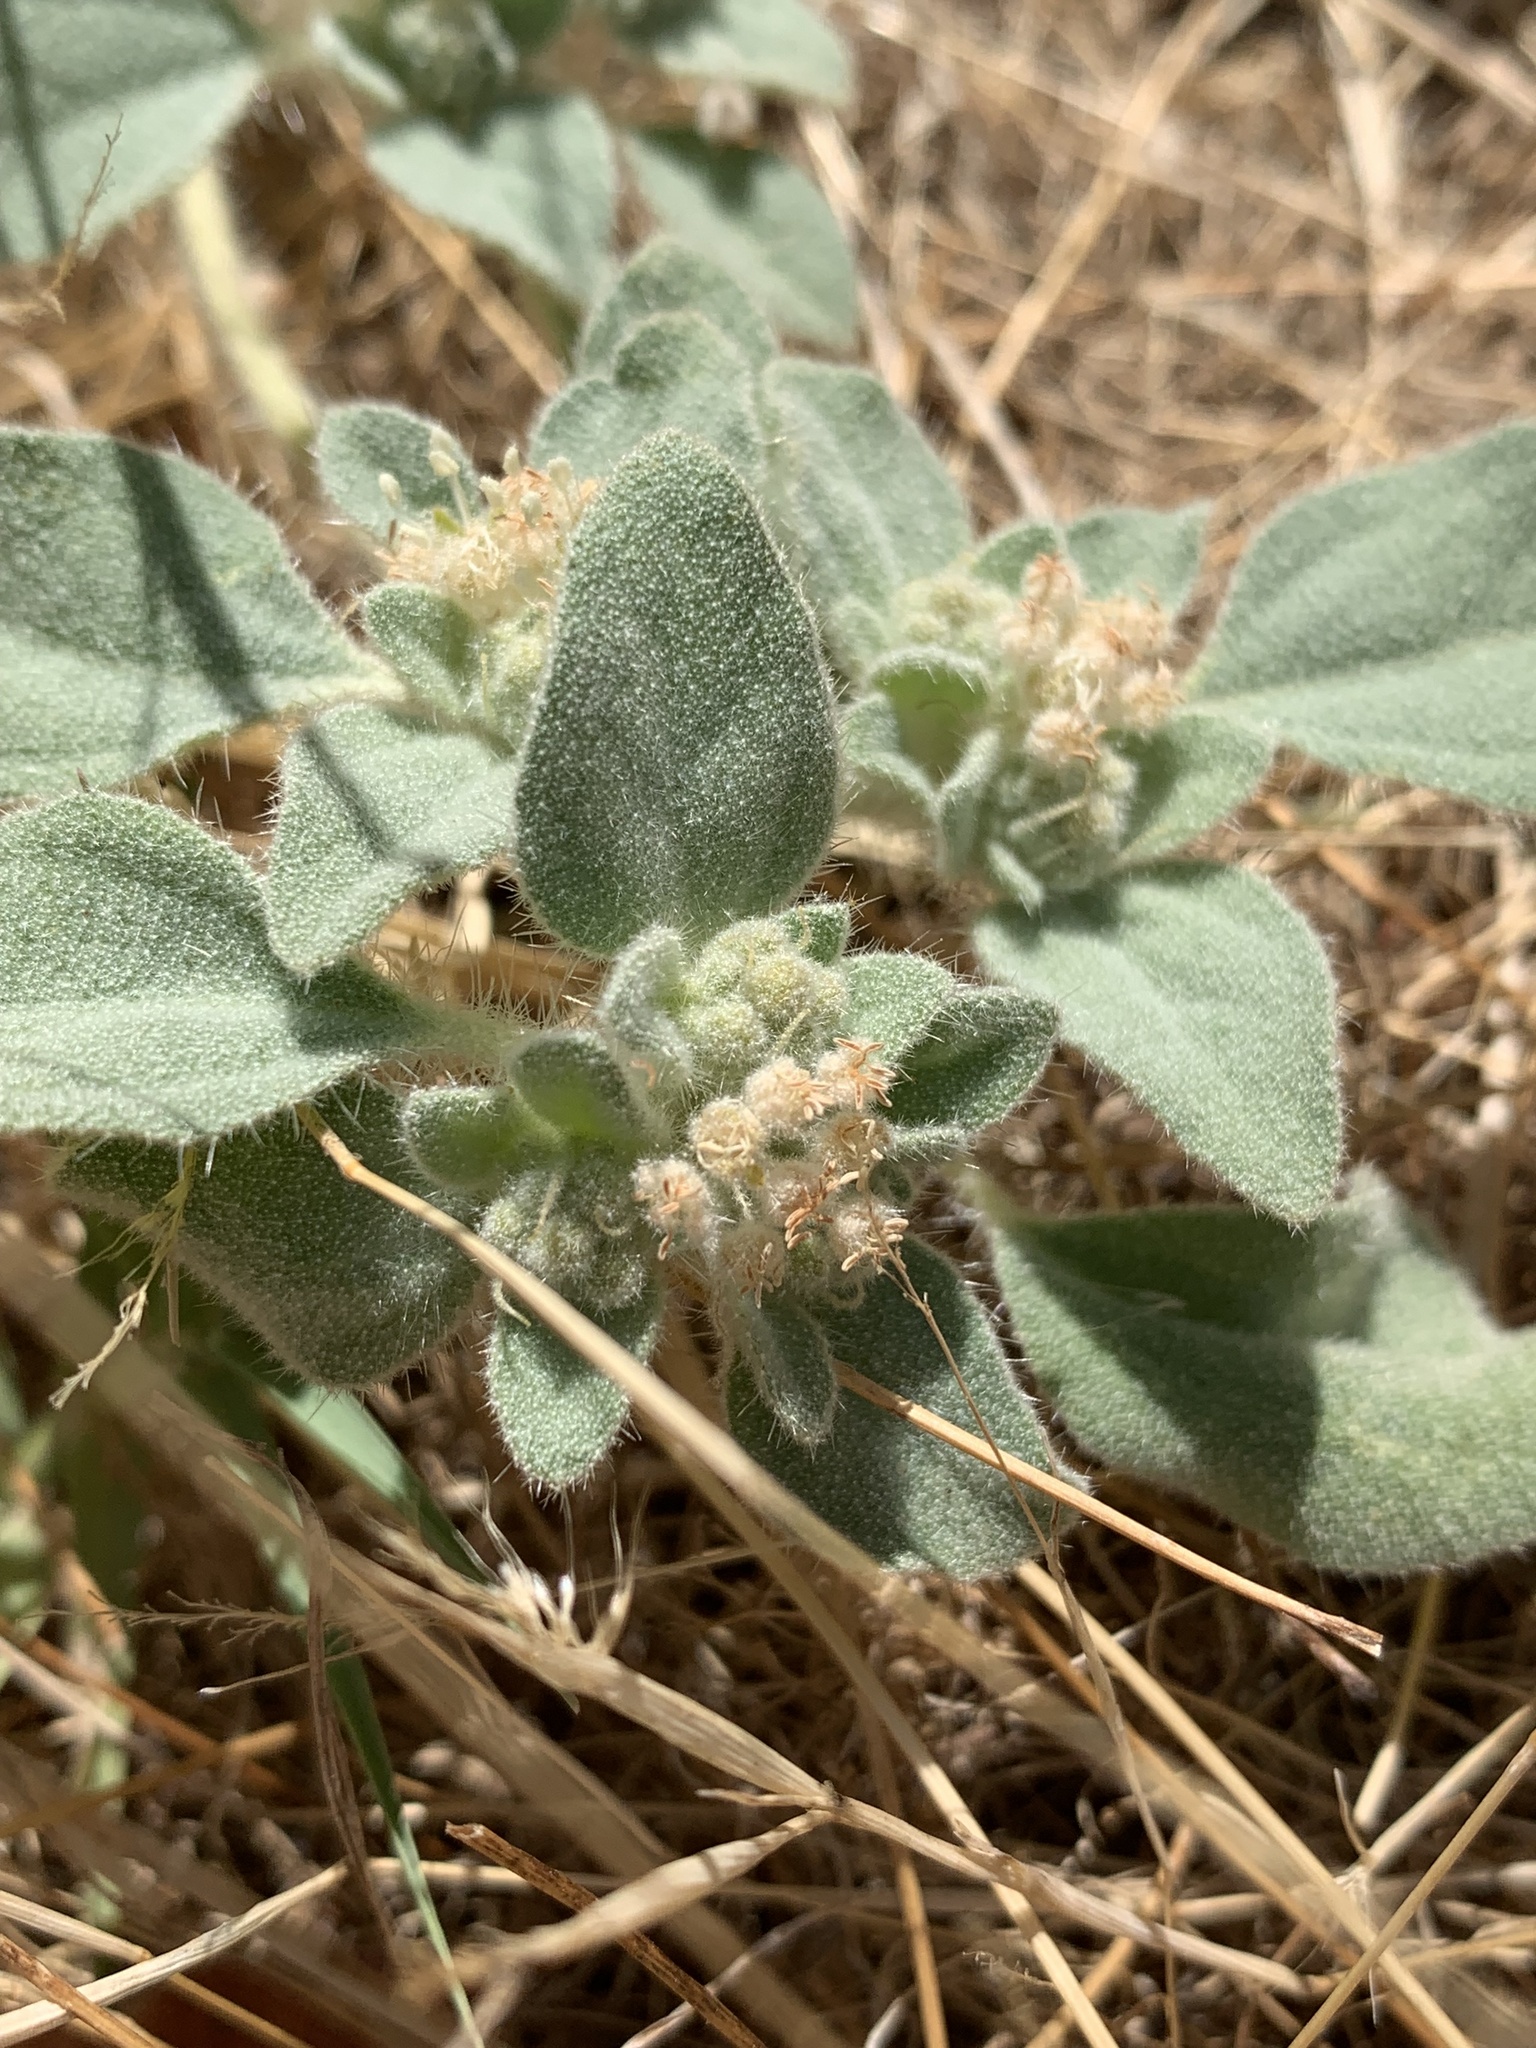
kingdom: Plantae
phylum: Tracheophyta
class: Magnoliopsida
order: Malpighiales
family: Euphorbiaceae
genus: Croton
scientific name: Croton setiger
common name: Dove weed
